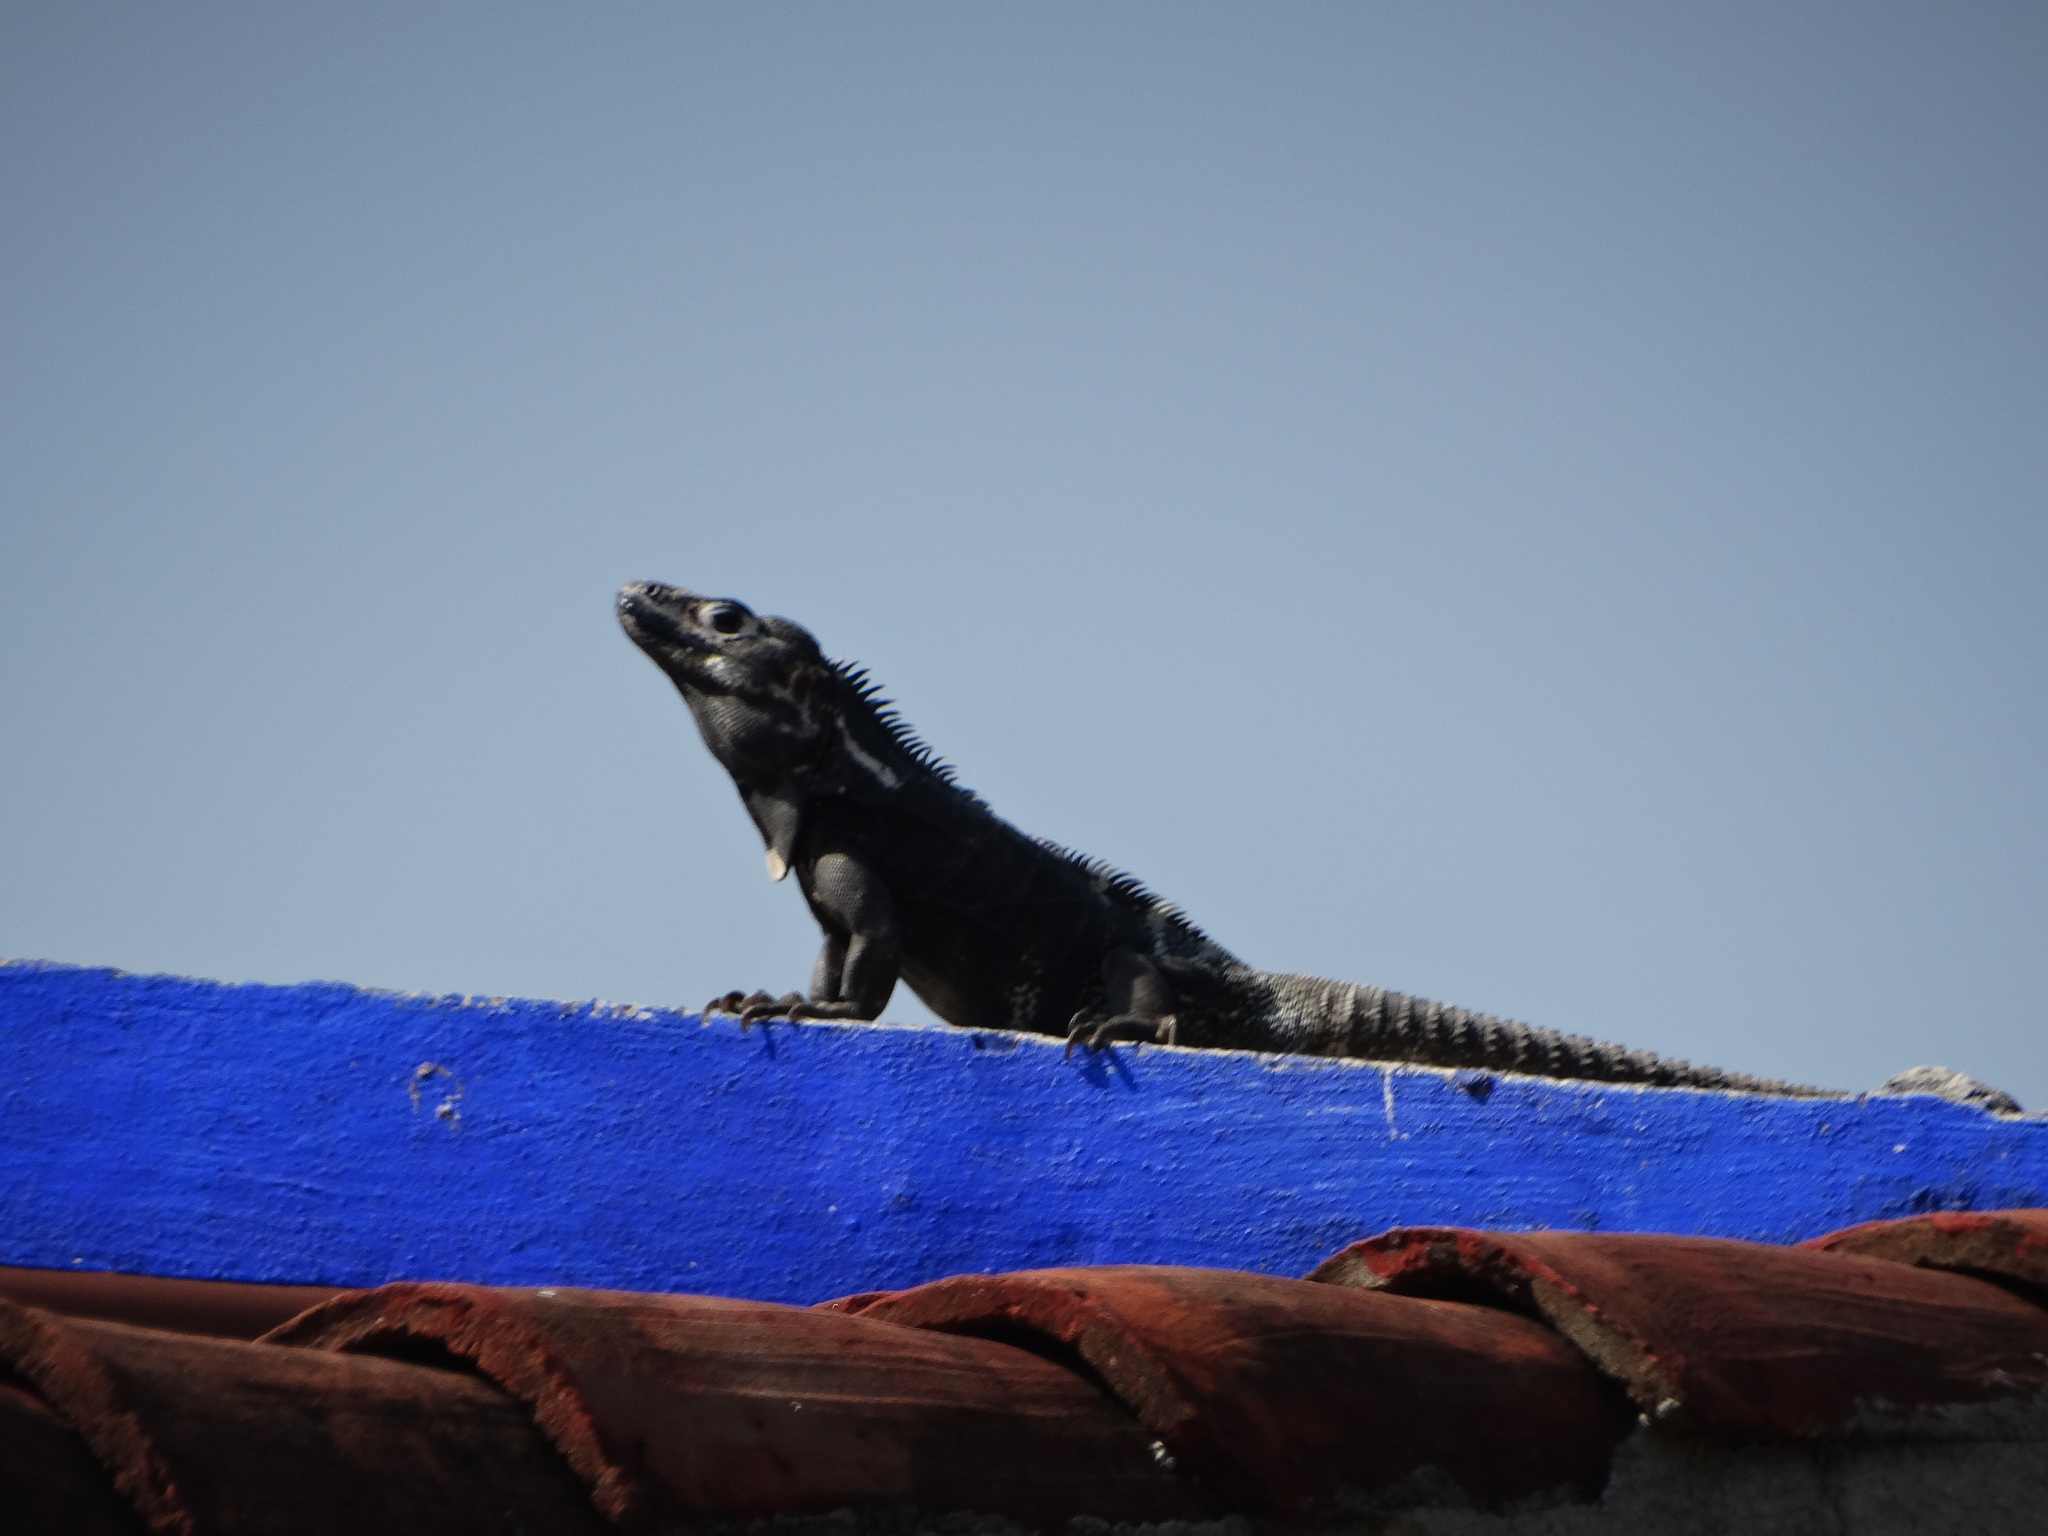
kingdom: Animalia
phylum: Chordata
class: Squamata
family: Iguanidae
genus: Ctenosaura
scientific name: Ctenosaura pectinata
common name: Guerreran spiny-tailed iguana
